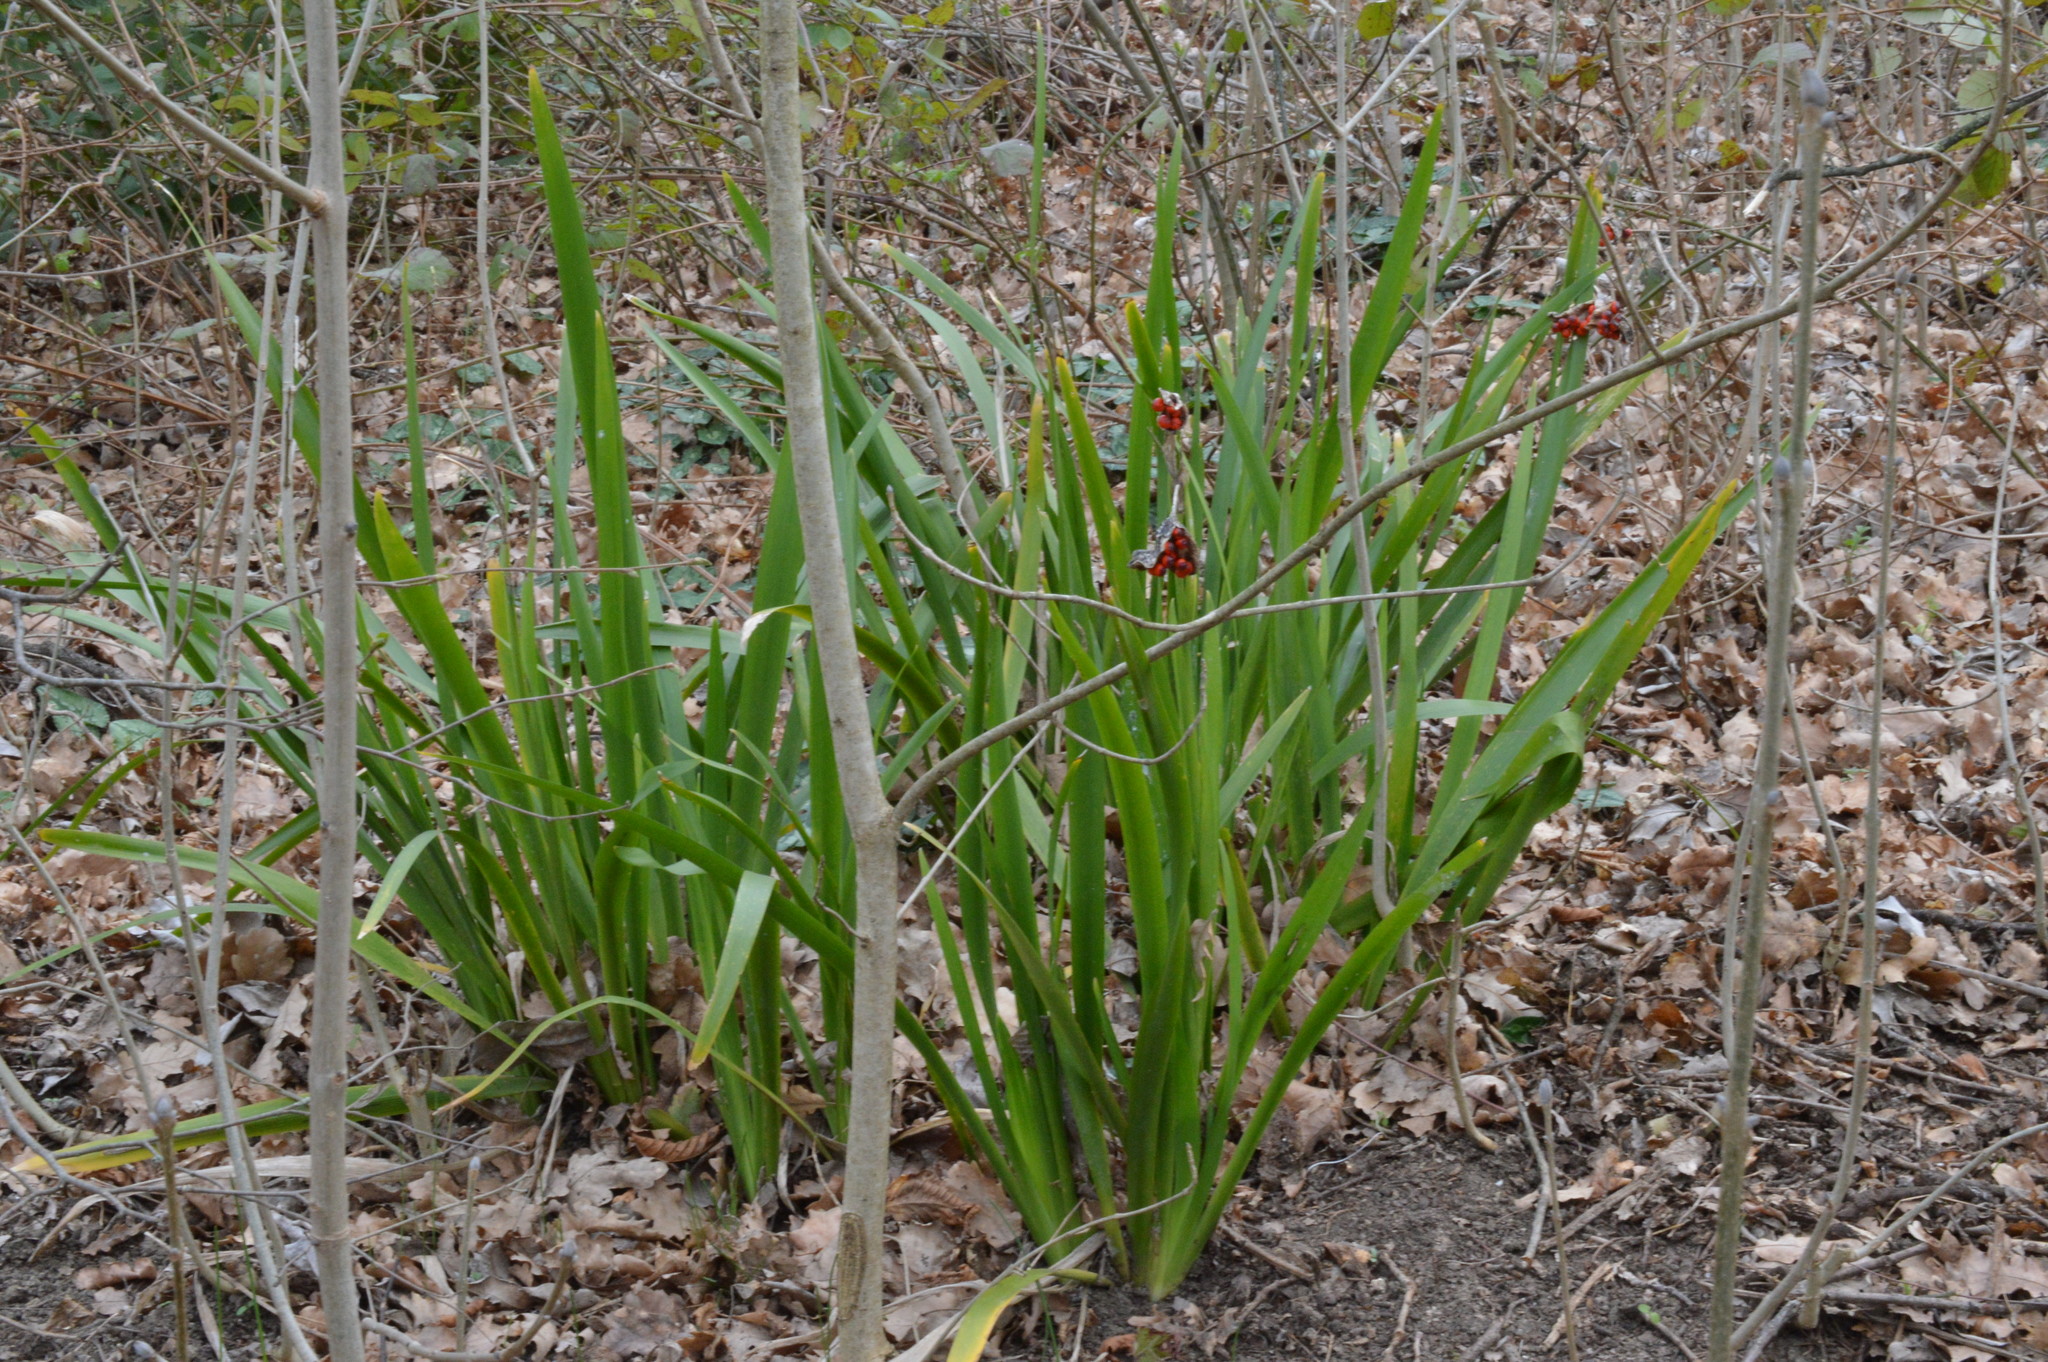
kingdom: Plantae
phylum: Tracheophyta
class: Liliopsida
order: Asparagales
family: Iridaceae
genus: Iris
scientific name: Iris foetidissima
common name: Stinking iris
